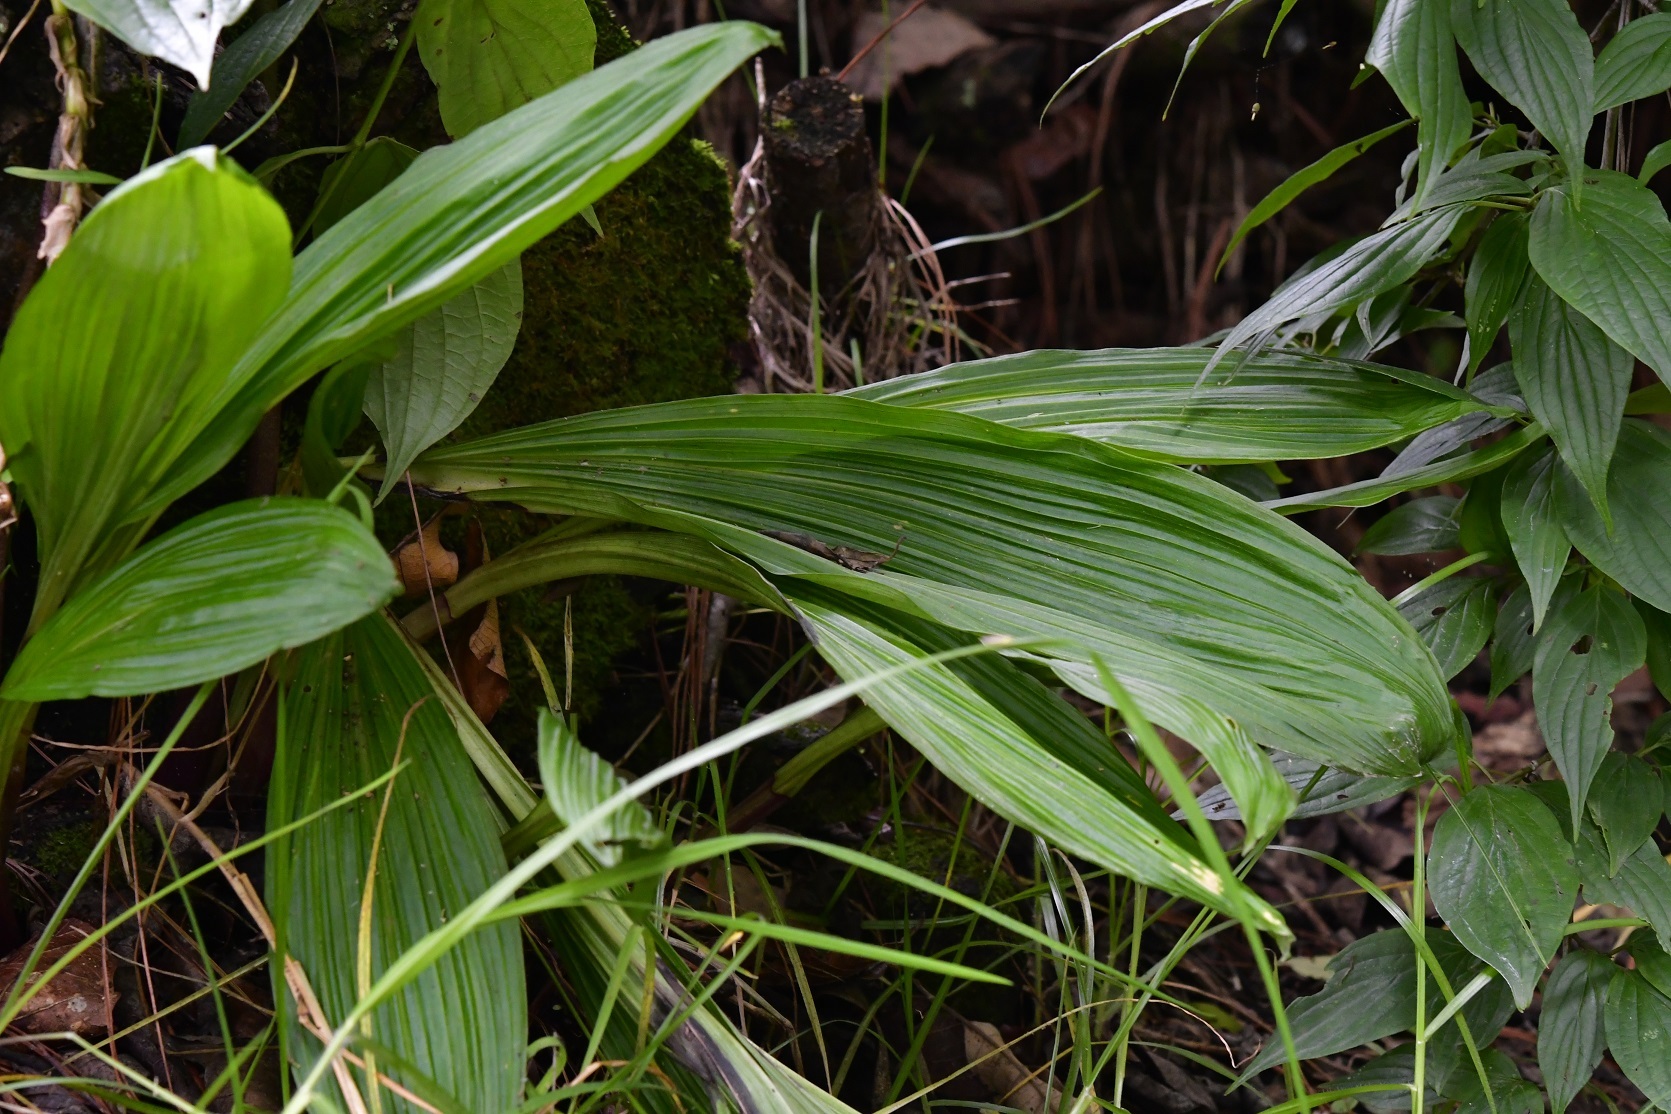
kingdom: Plantae
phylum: Tracheophyta
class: Liliopsida
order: Asparagales
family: Orchidaceae
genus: Govenia
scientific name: Govenia superba
